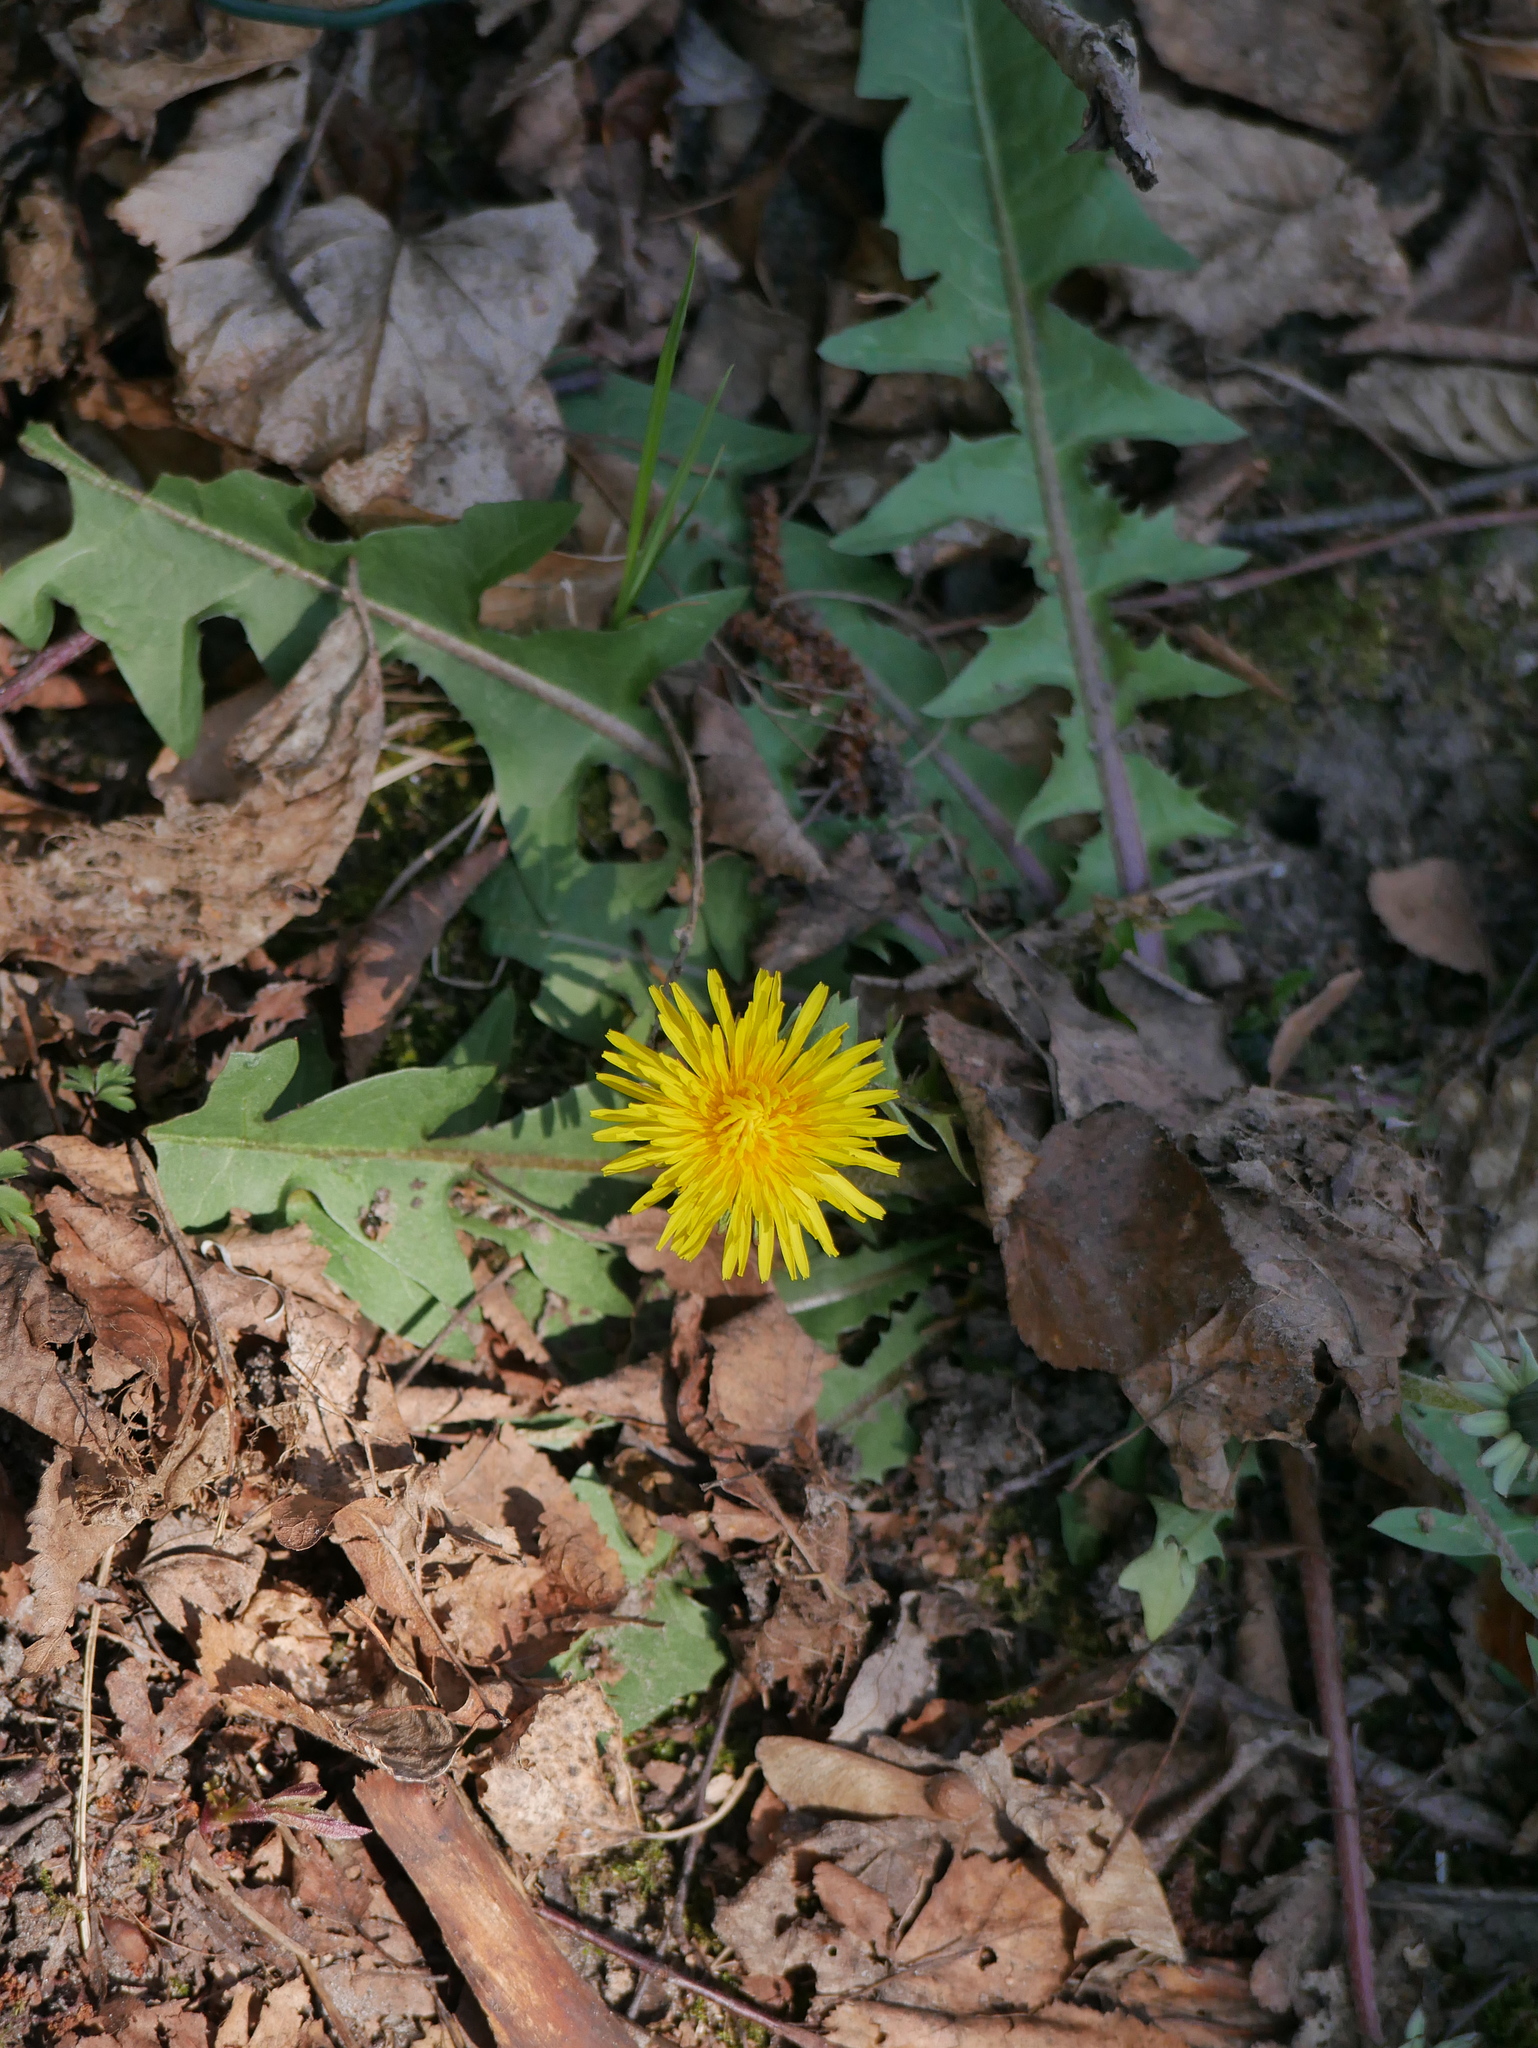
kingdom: Plantae
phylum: Tracheophyta
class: Magnoliopsida
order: Asterales
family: Asteraceae
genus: Taraxacum
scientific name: Taraxacum officinale
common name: Common dandelion
